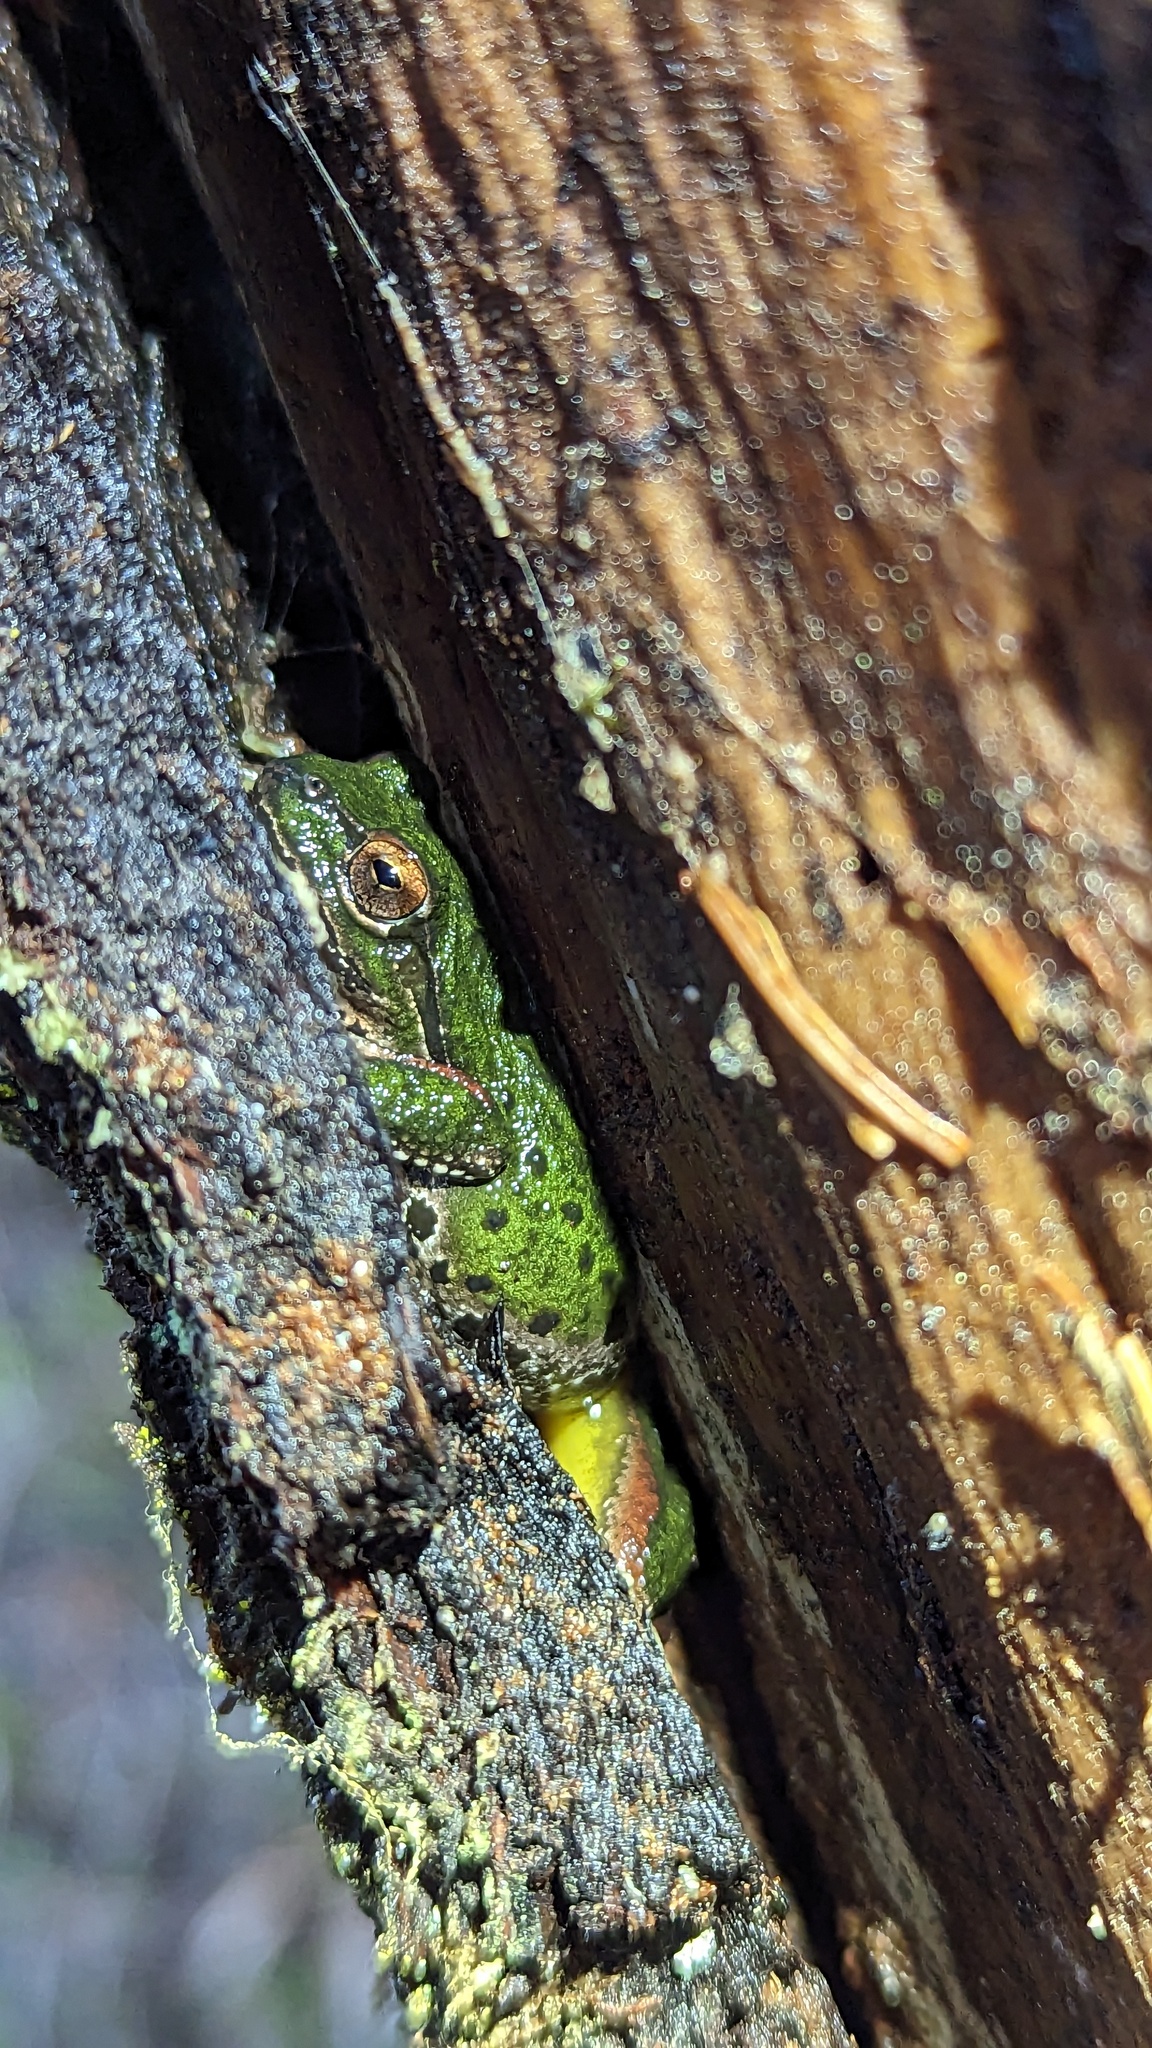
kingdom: Animalia
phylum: Chordata
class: Amphibia
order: Anura
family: Hylidae
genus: Pseudacris
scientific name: Pseudacris regilla
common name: Pacific chorus frog
